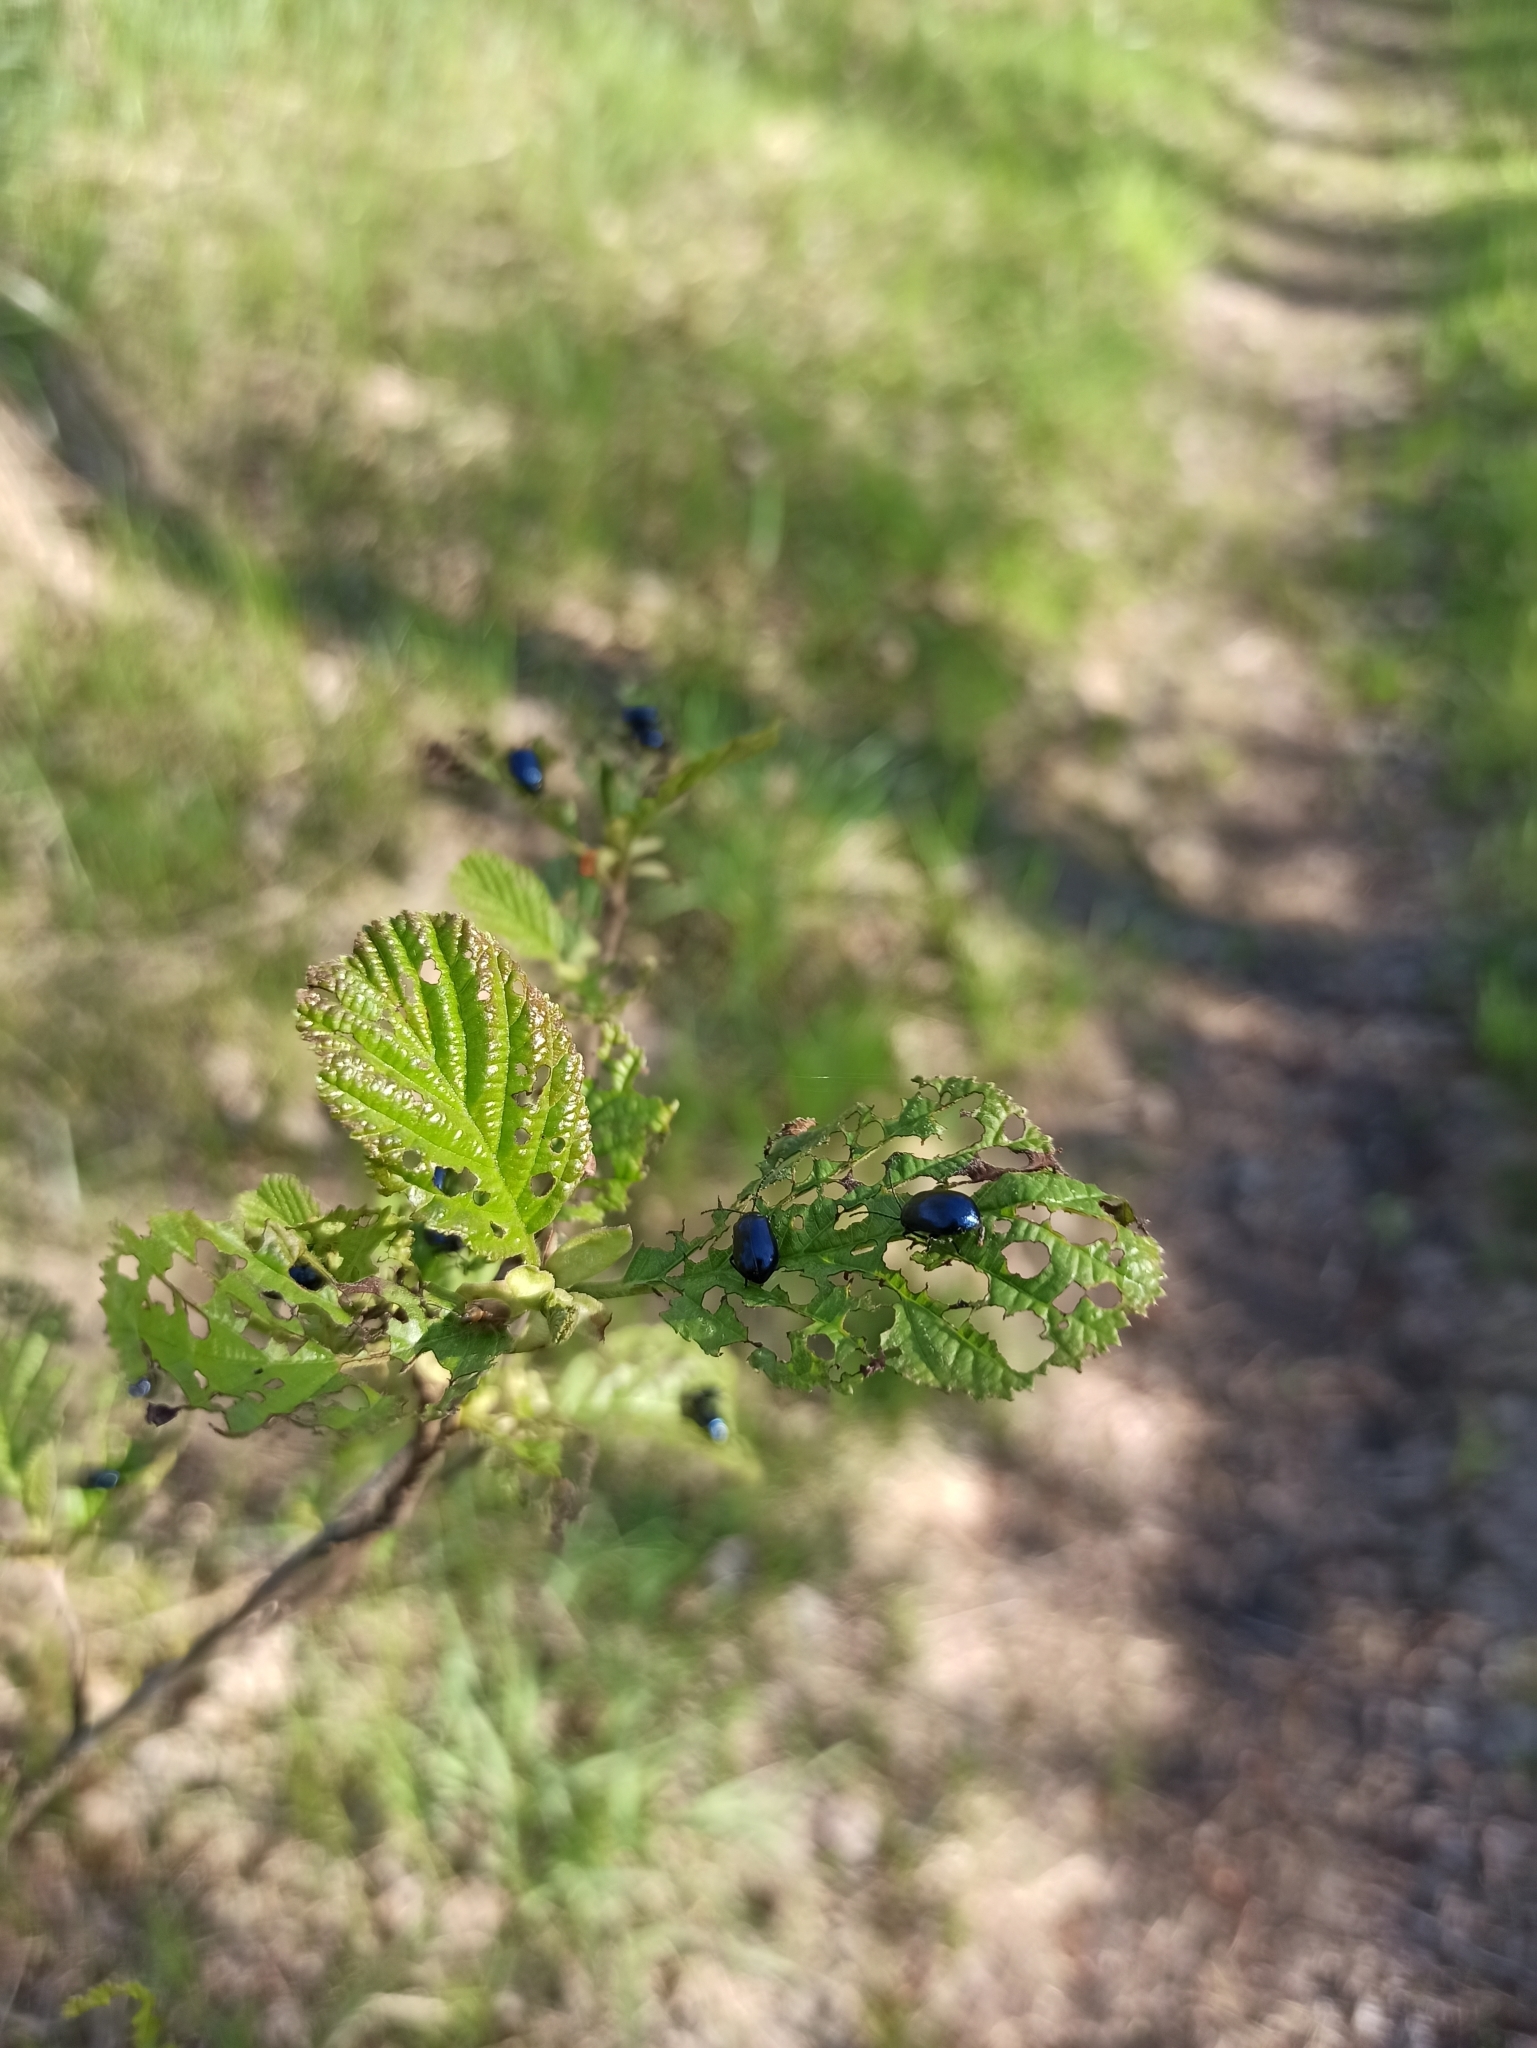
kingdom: Plantae
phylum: Tracheophyta
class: Magnoliopsida
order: Fagales
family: Betulaceae
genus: Alnus
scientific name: Alnus glutinosa
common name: Black alder
